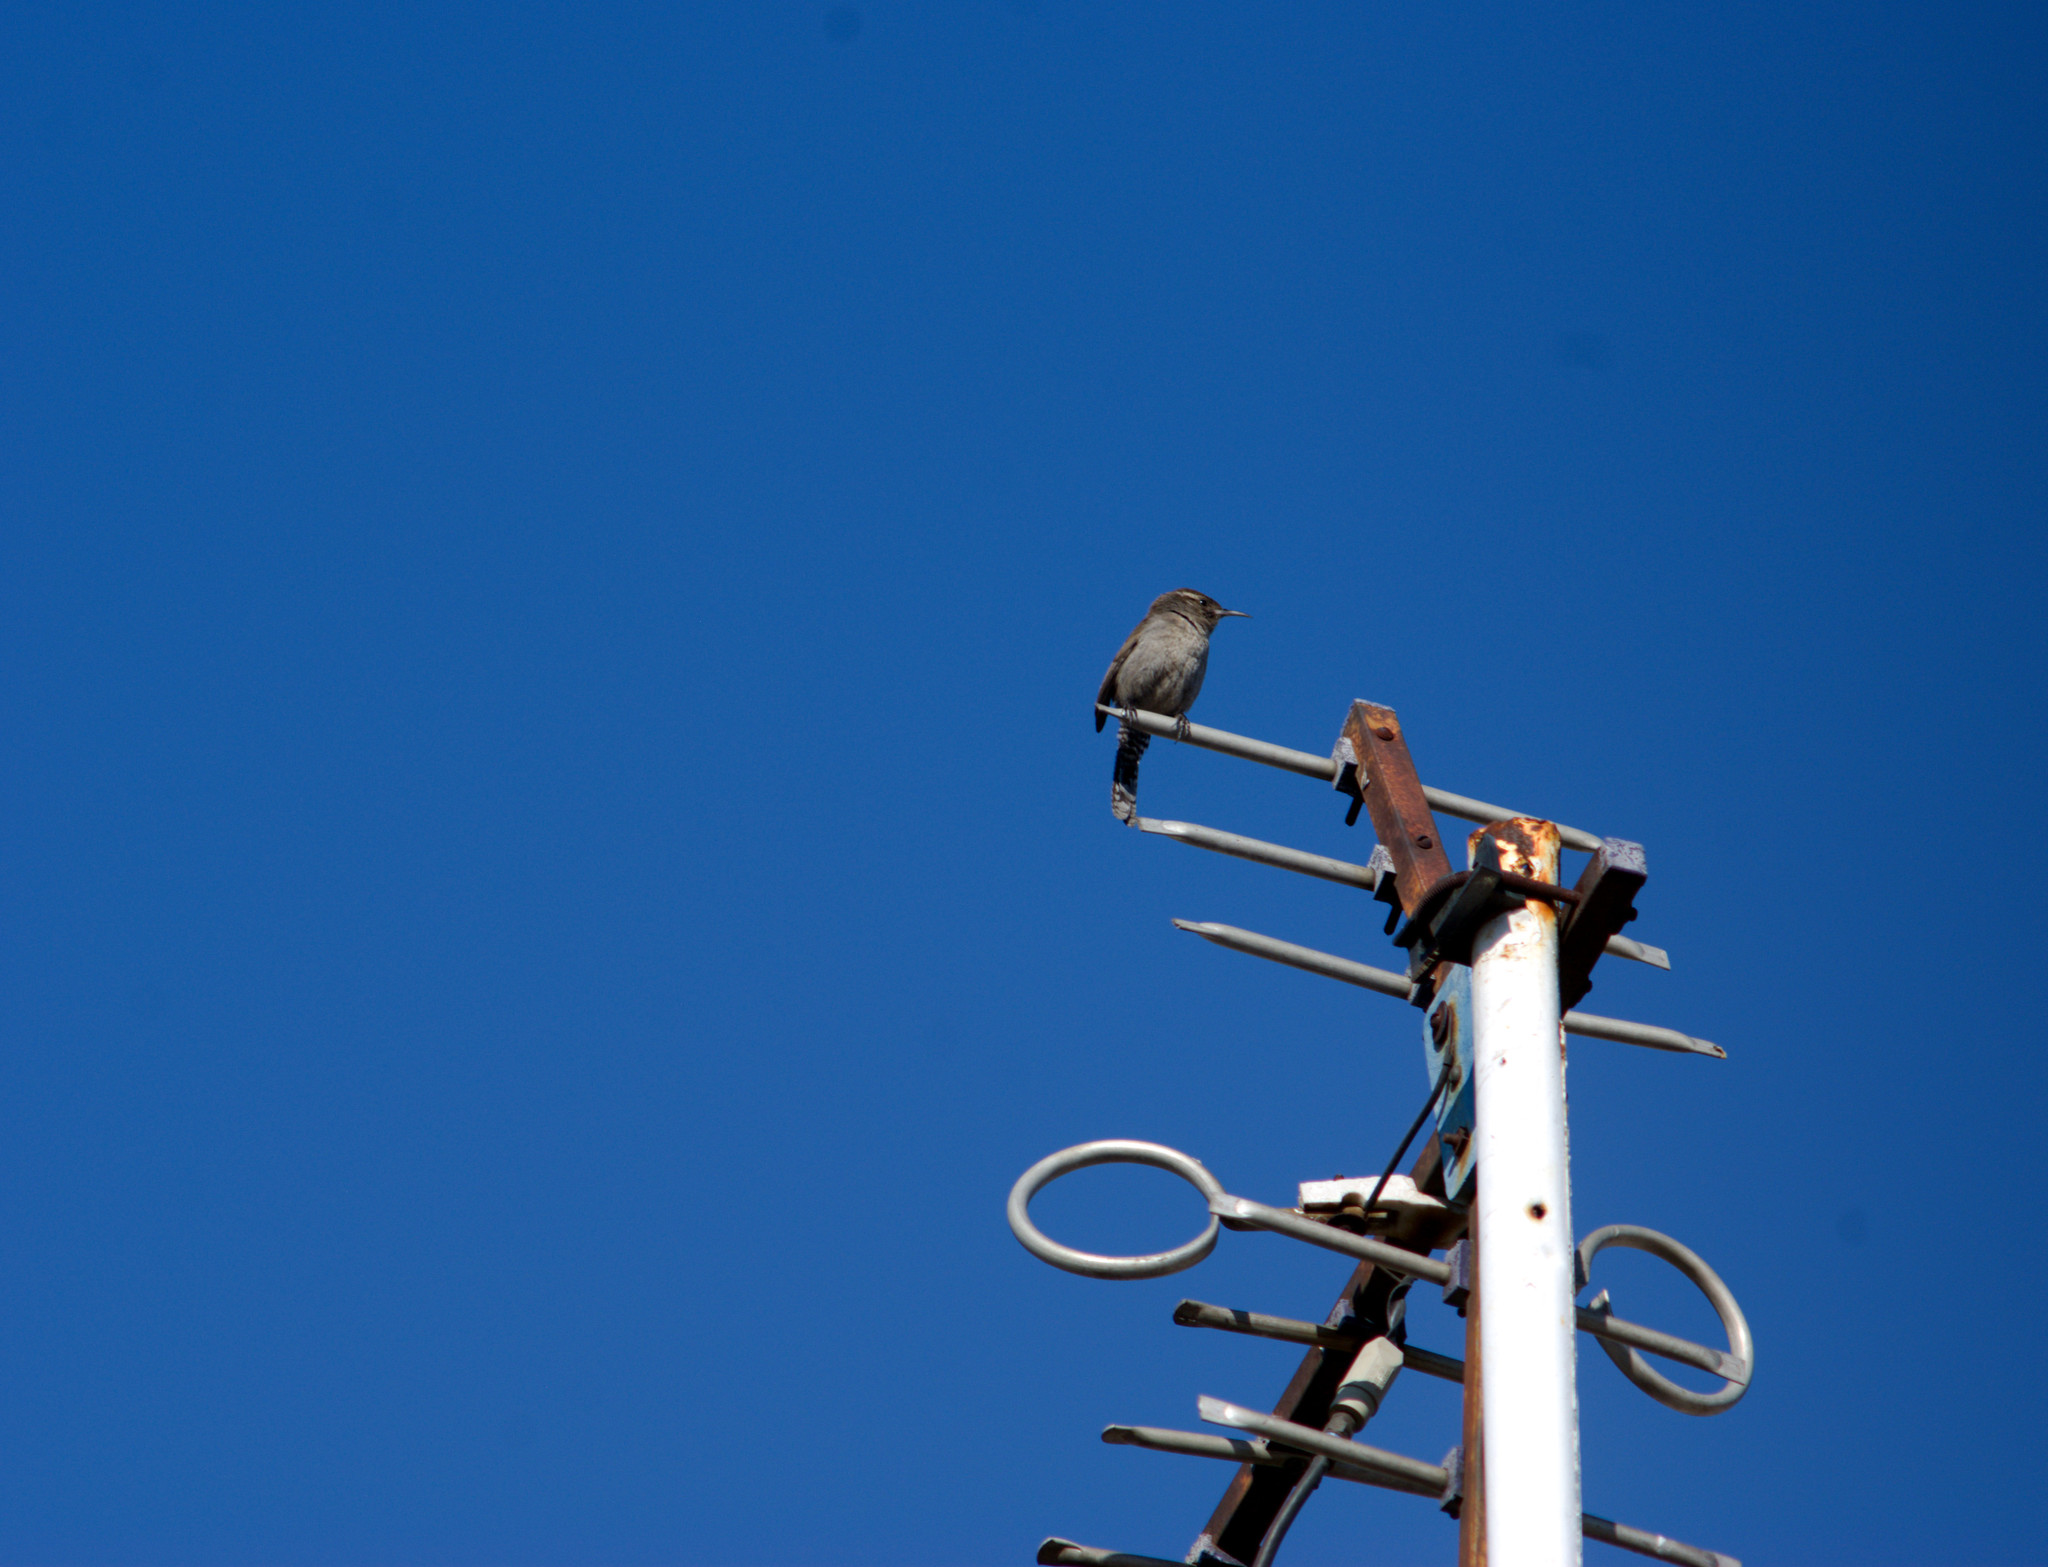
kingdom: Animalia
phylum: Chordata
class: Aves
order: Passeriformes
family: Troglodytidae
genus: Thryomanes
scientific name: Thryomanes bewickii
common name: Bewick's wren
